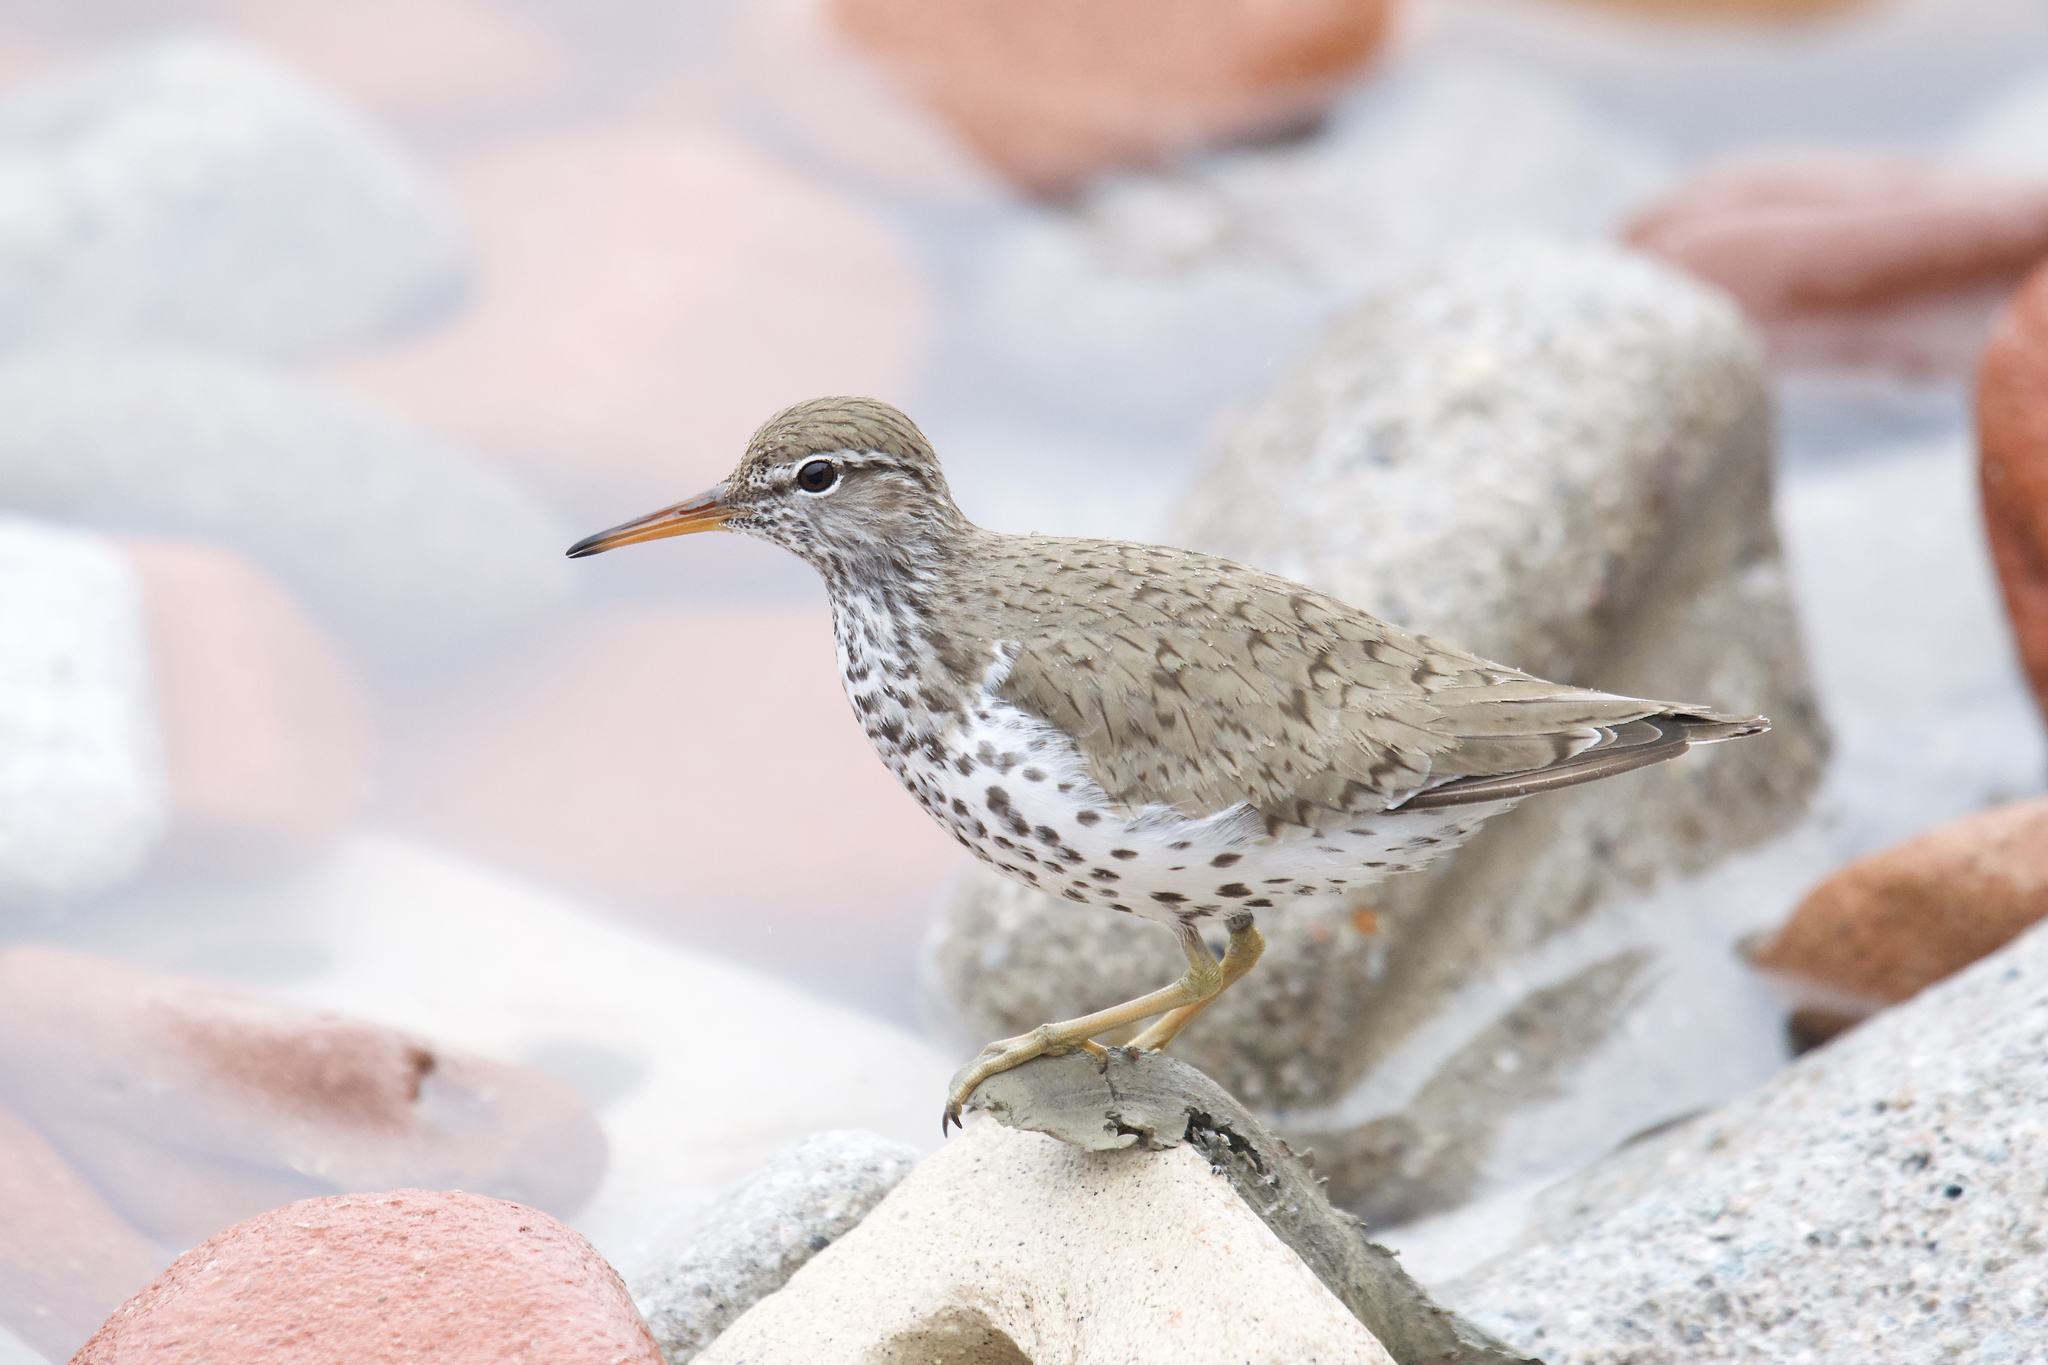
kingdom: Animalia
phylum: Chordata
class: Aves
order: Charadriiformes
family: Scolopacidae
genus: Actitis
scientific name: Actitis macularius
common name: Spotted sandpiper
